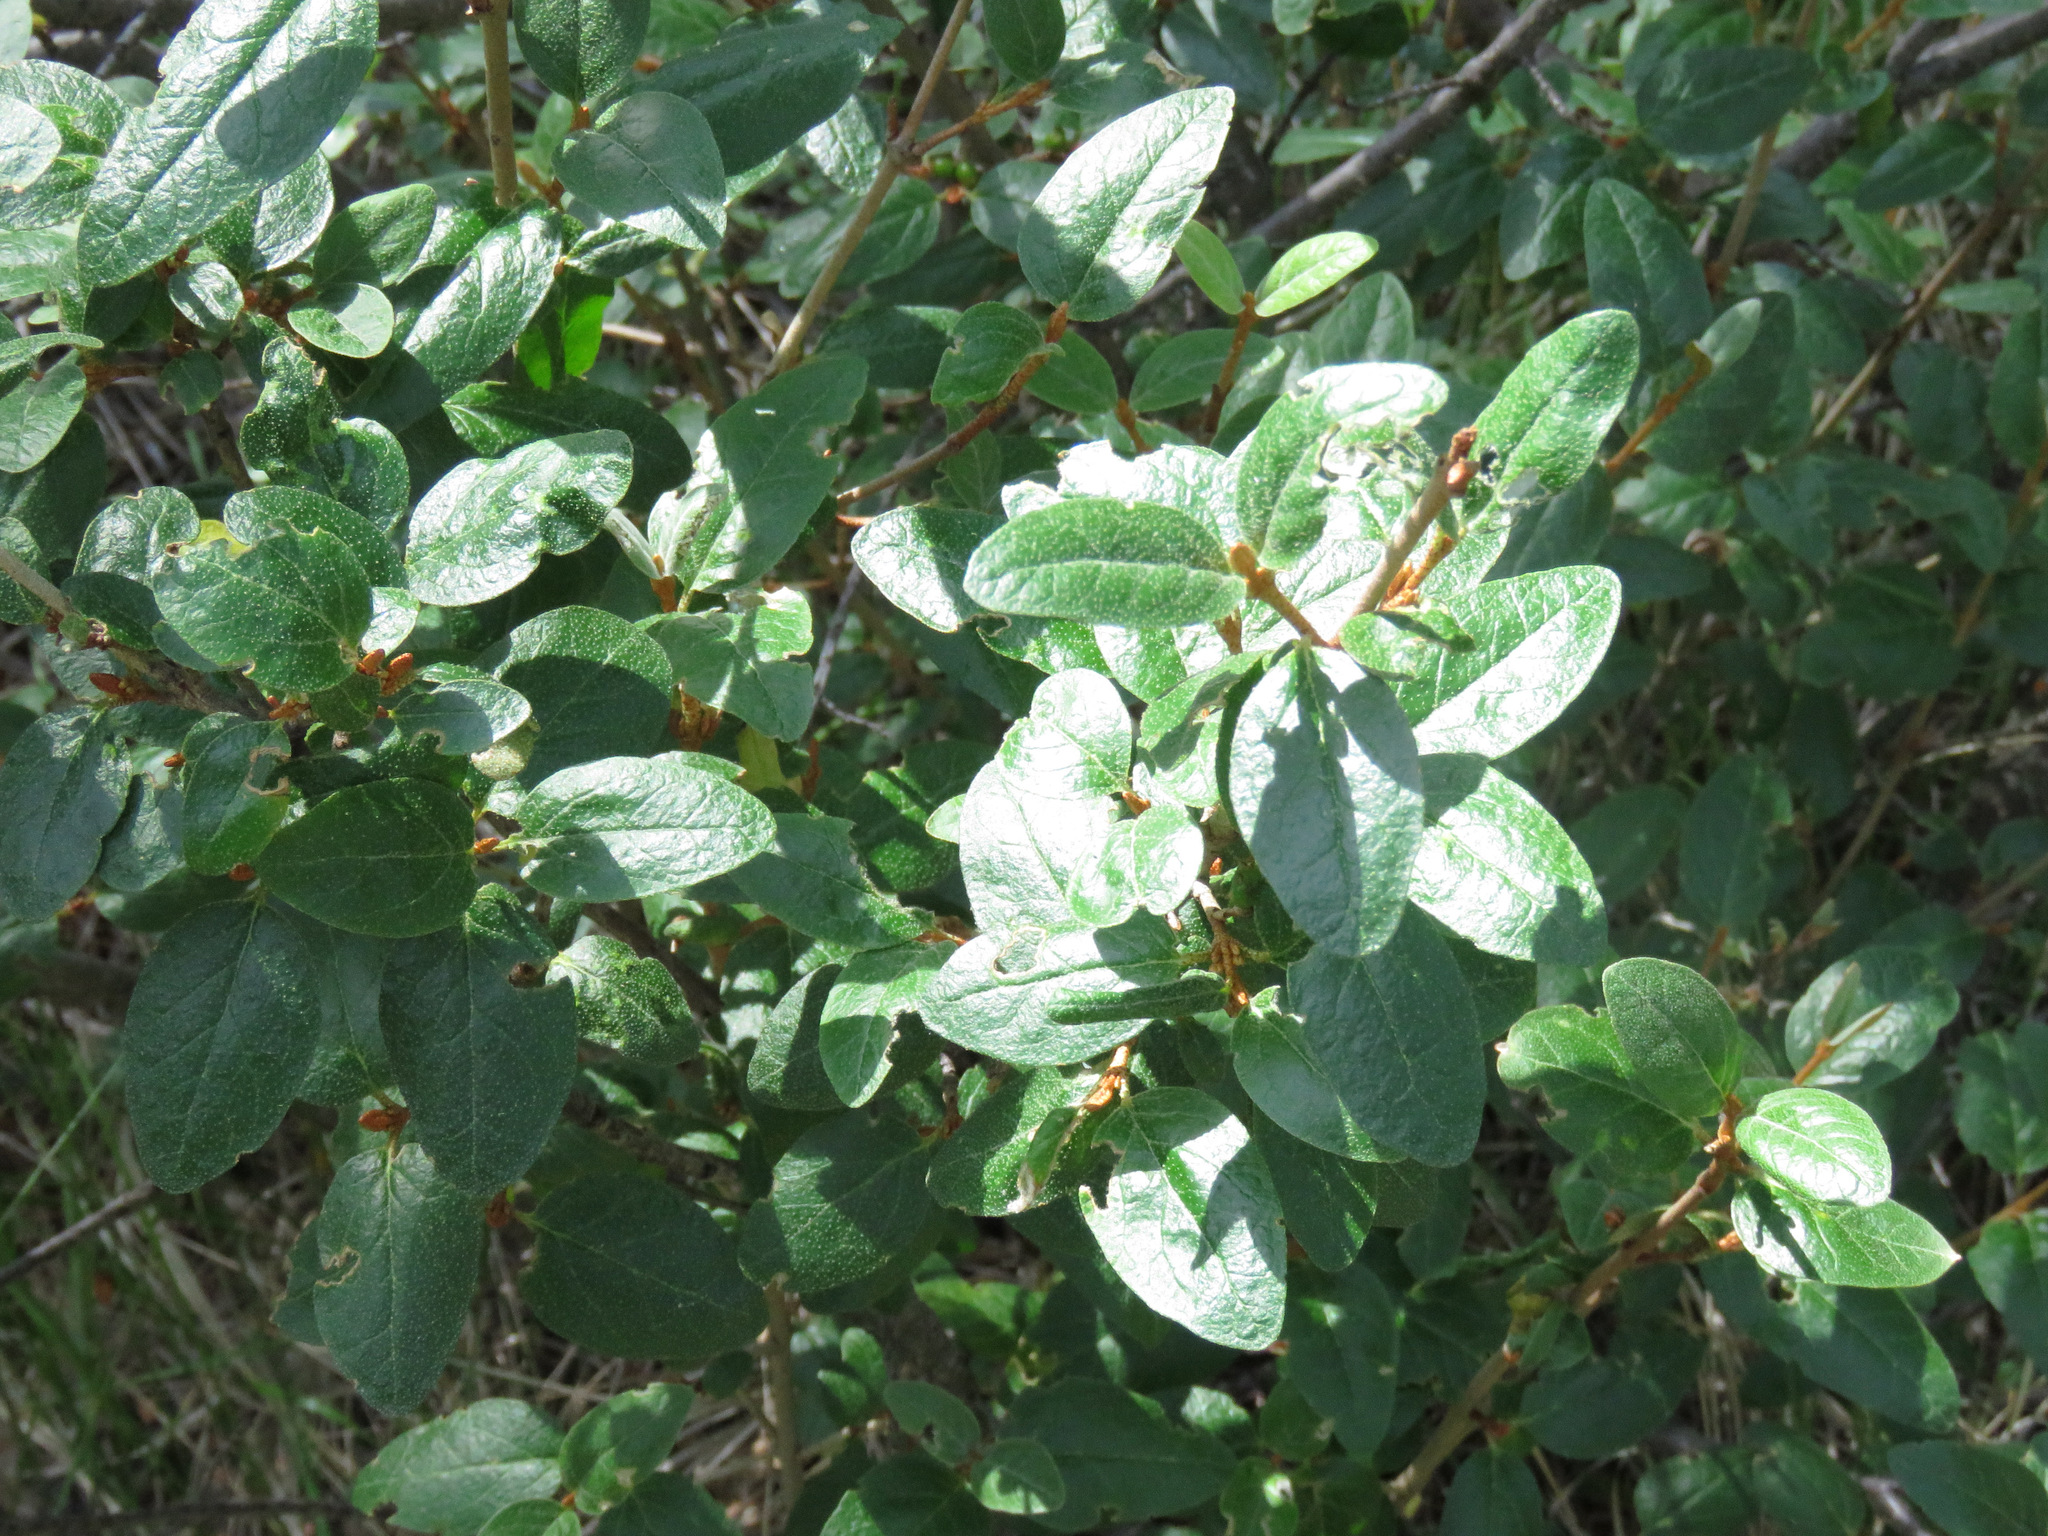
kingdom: Plantae
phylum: Tracheophyta
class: Magnoliopsida
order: Rosales
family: Elaeagnaceae
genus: Shepherdia
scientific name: Shepherdia canadensis
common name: Soapberry
